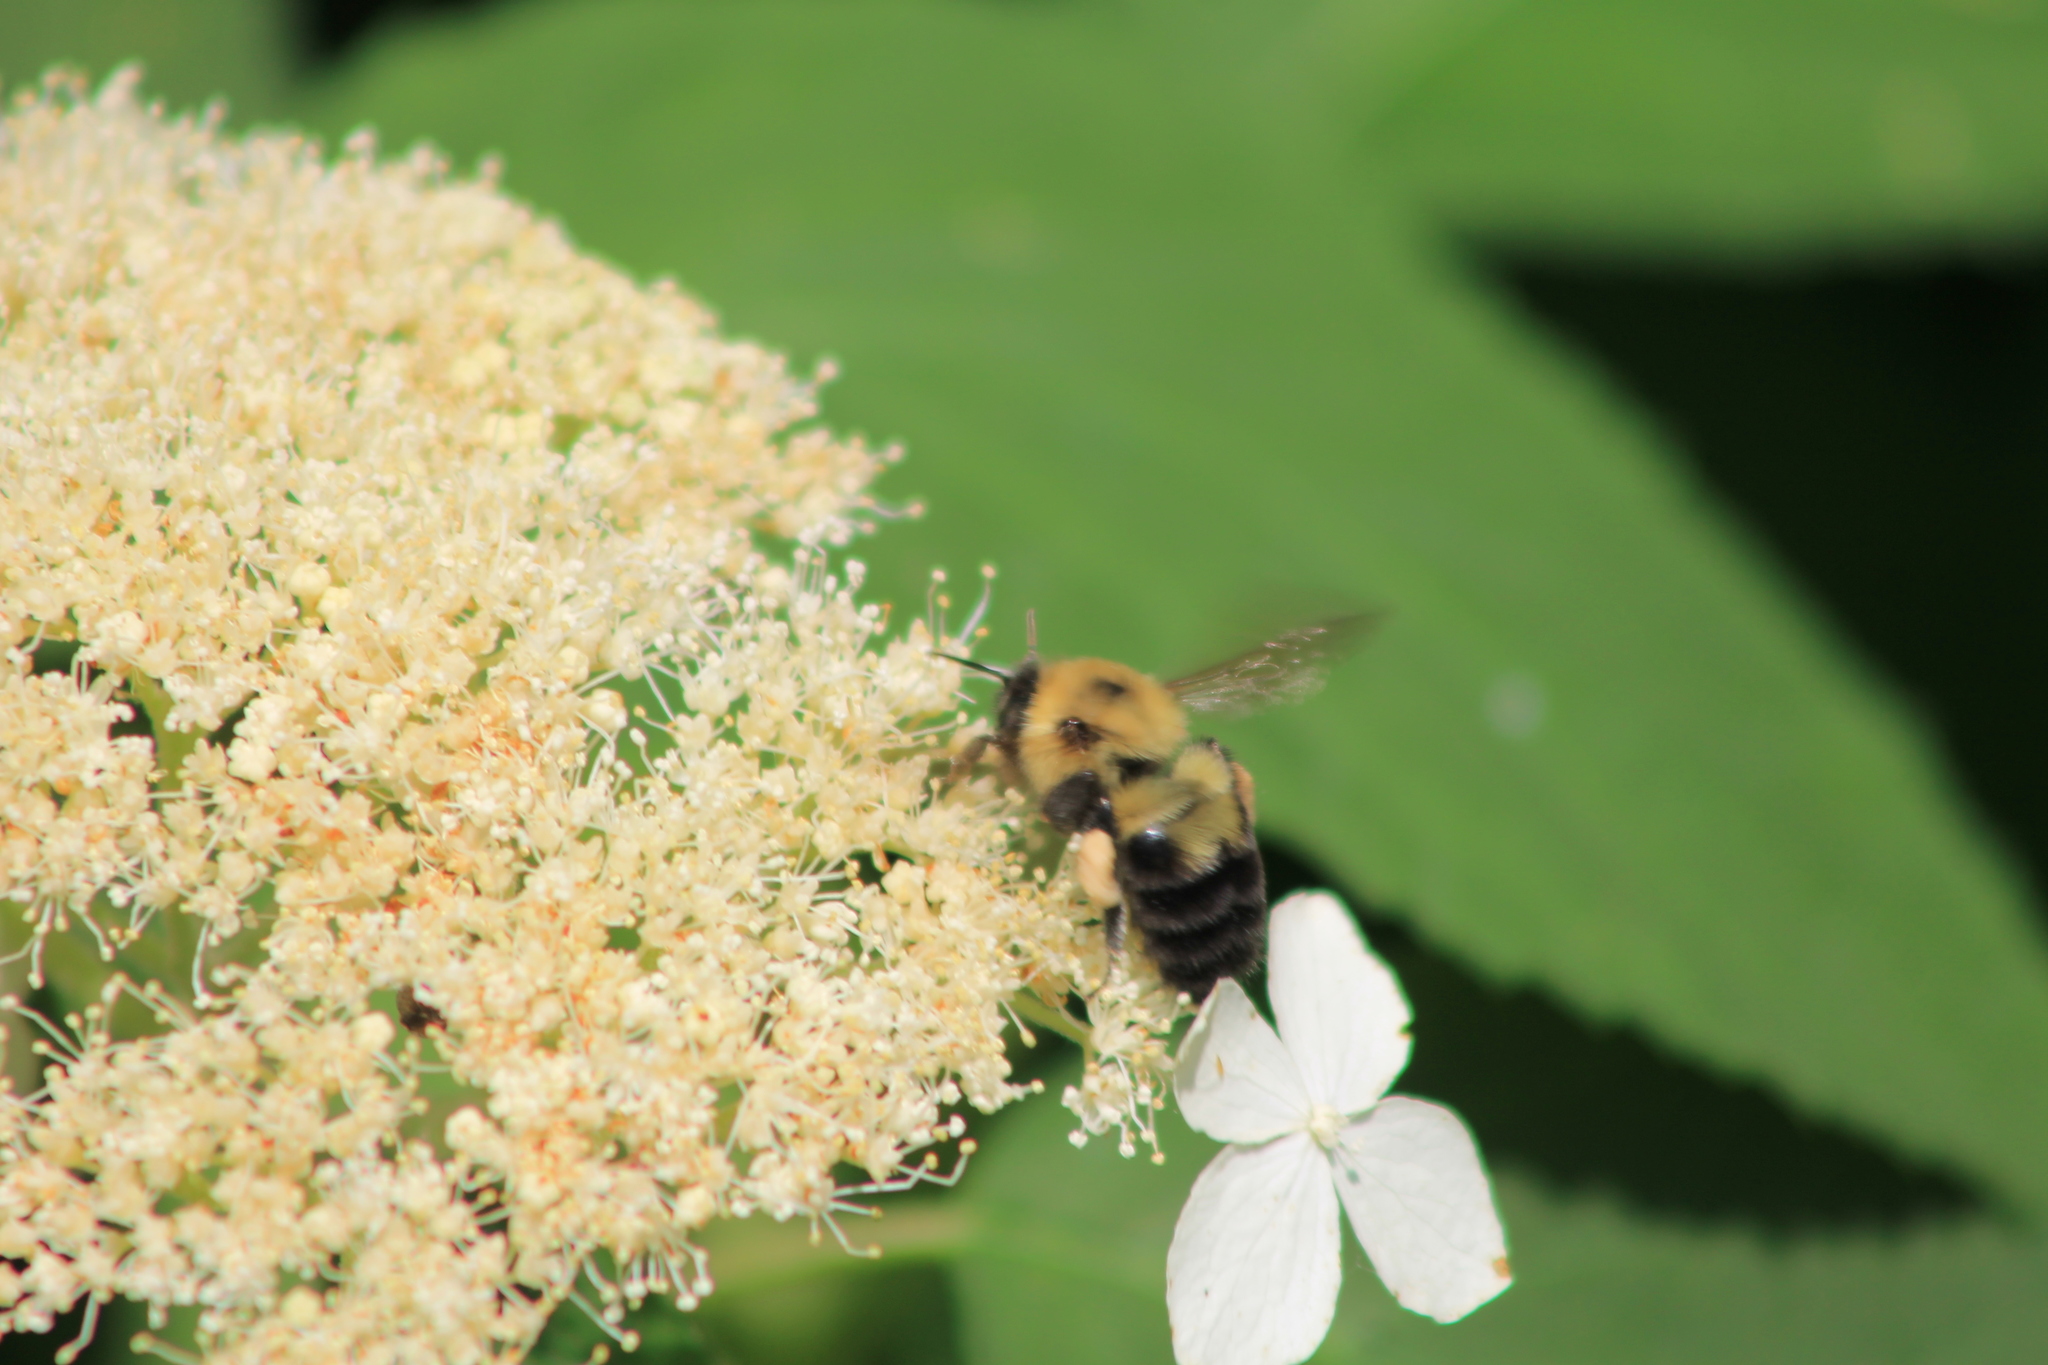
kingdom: Animalia
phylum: Arthropoda
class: Insecta
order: Hymenoptera
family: Apidae
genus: Bombus
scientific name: Bombus bimaculatus
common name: Two-spotted bumble bee
